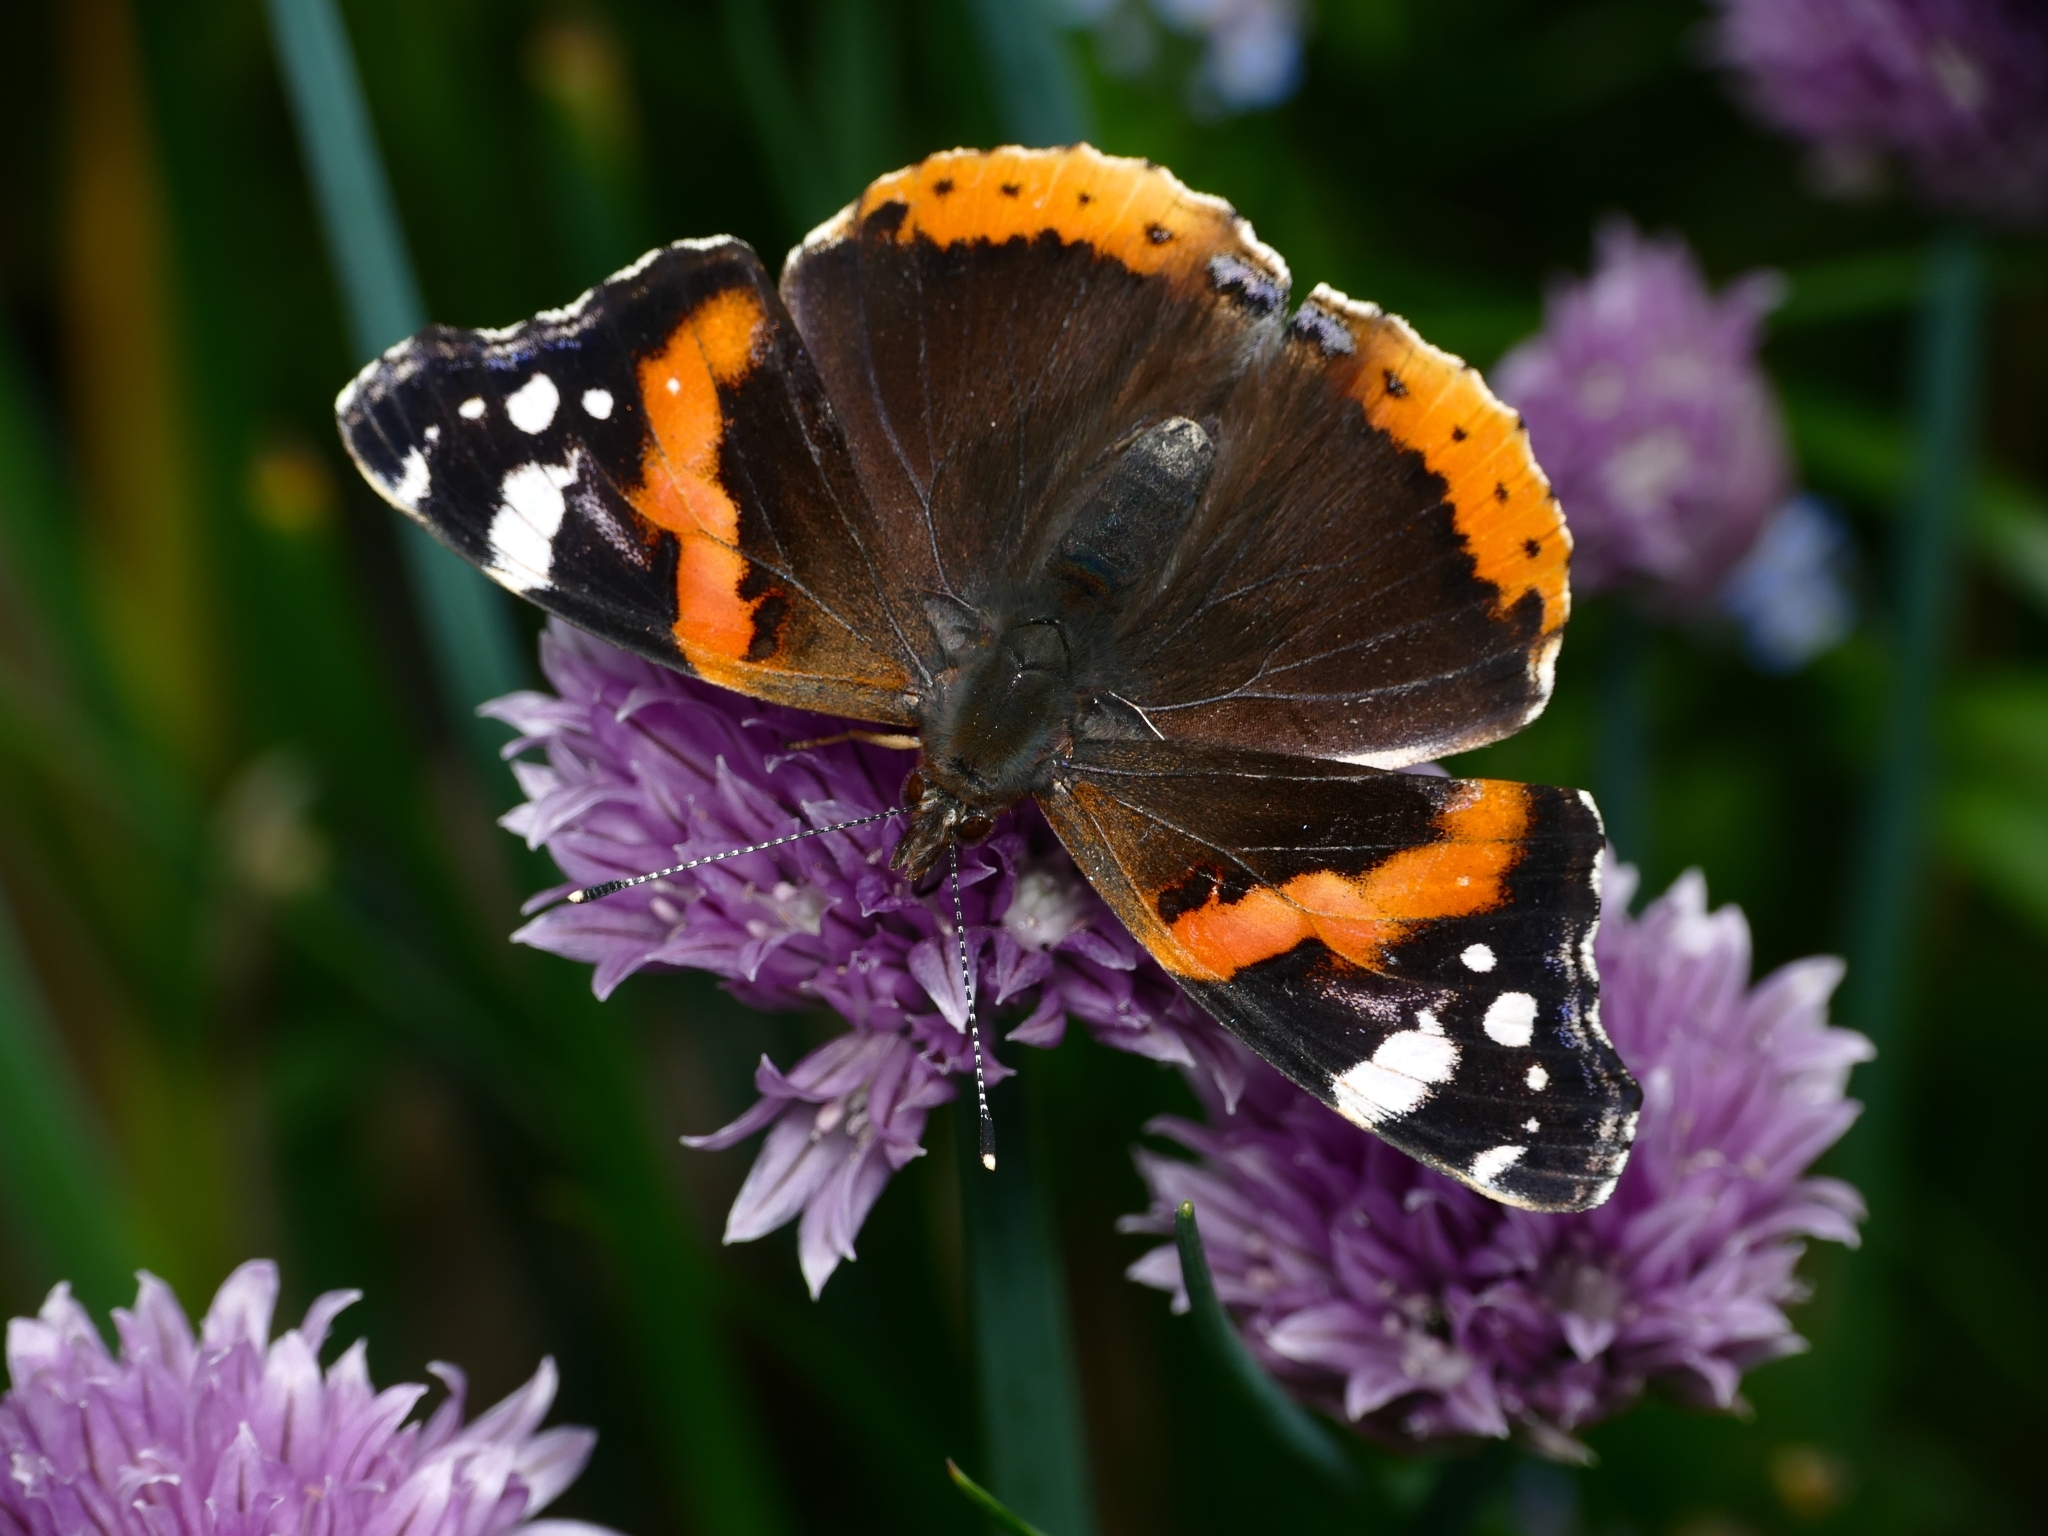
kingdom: Animalia
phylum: Arthropoda
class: Insecta
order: Lepidoptera
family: Nymphalidae
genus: Vanessa
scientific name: Vanessa atalanta
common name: Red admiral
